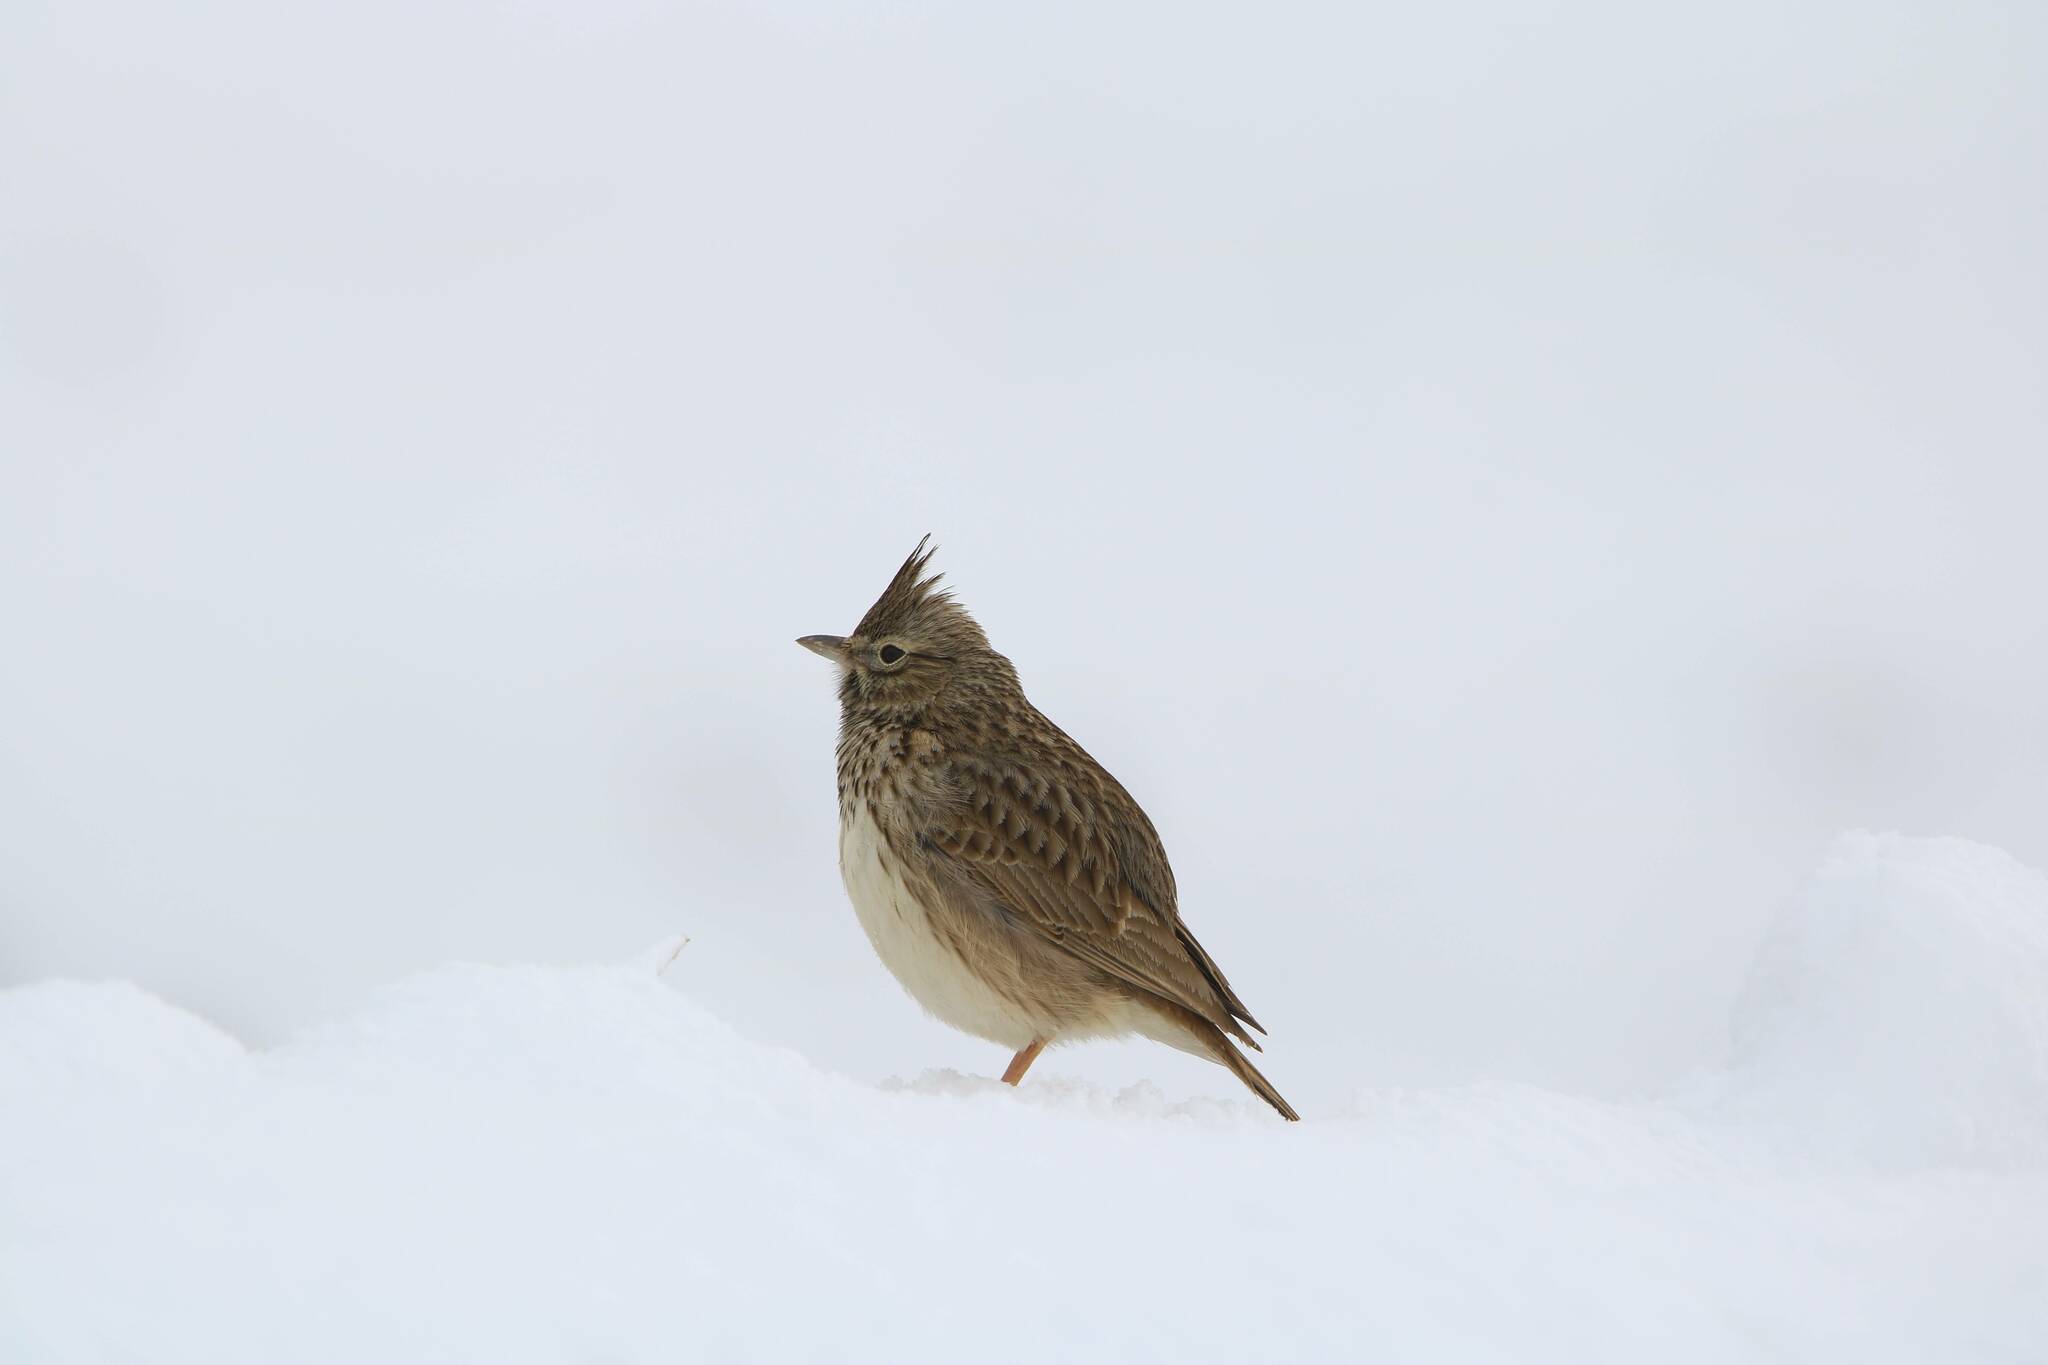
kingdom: Animalia
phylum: Chordata
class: Aves
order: Passeriformes
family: Alaudidae
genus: Galerida
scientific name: Galerida cristata
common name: Crested lark
